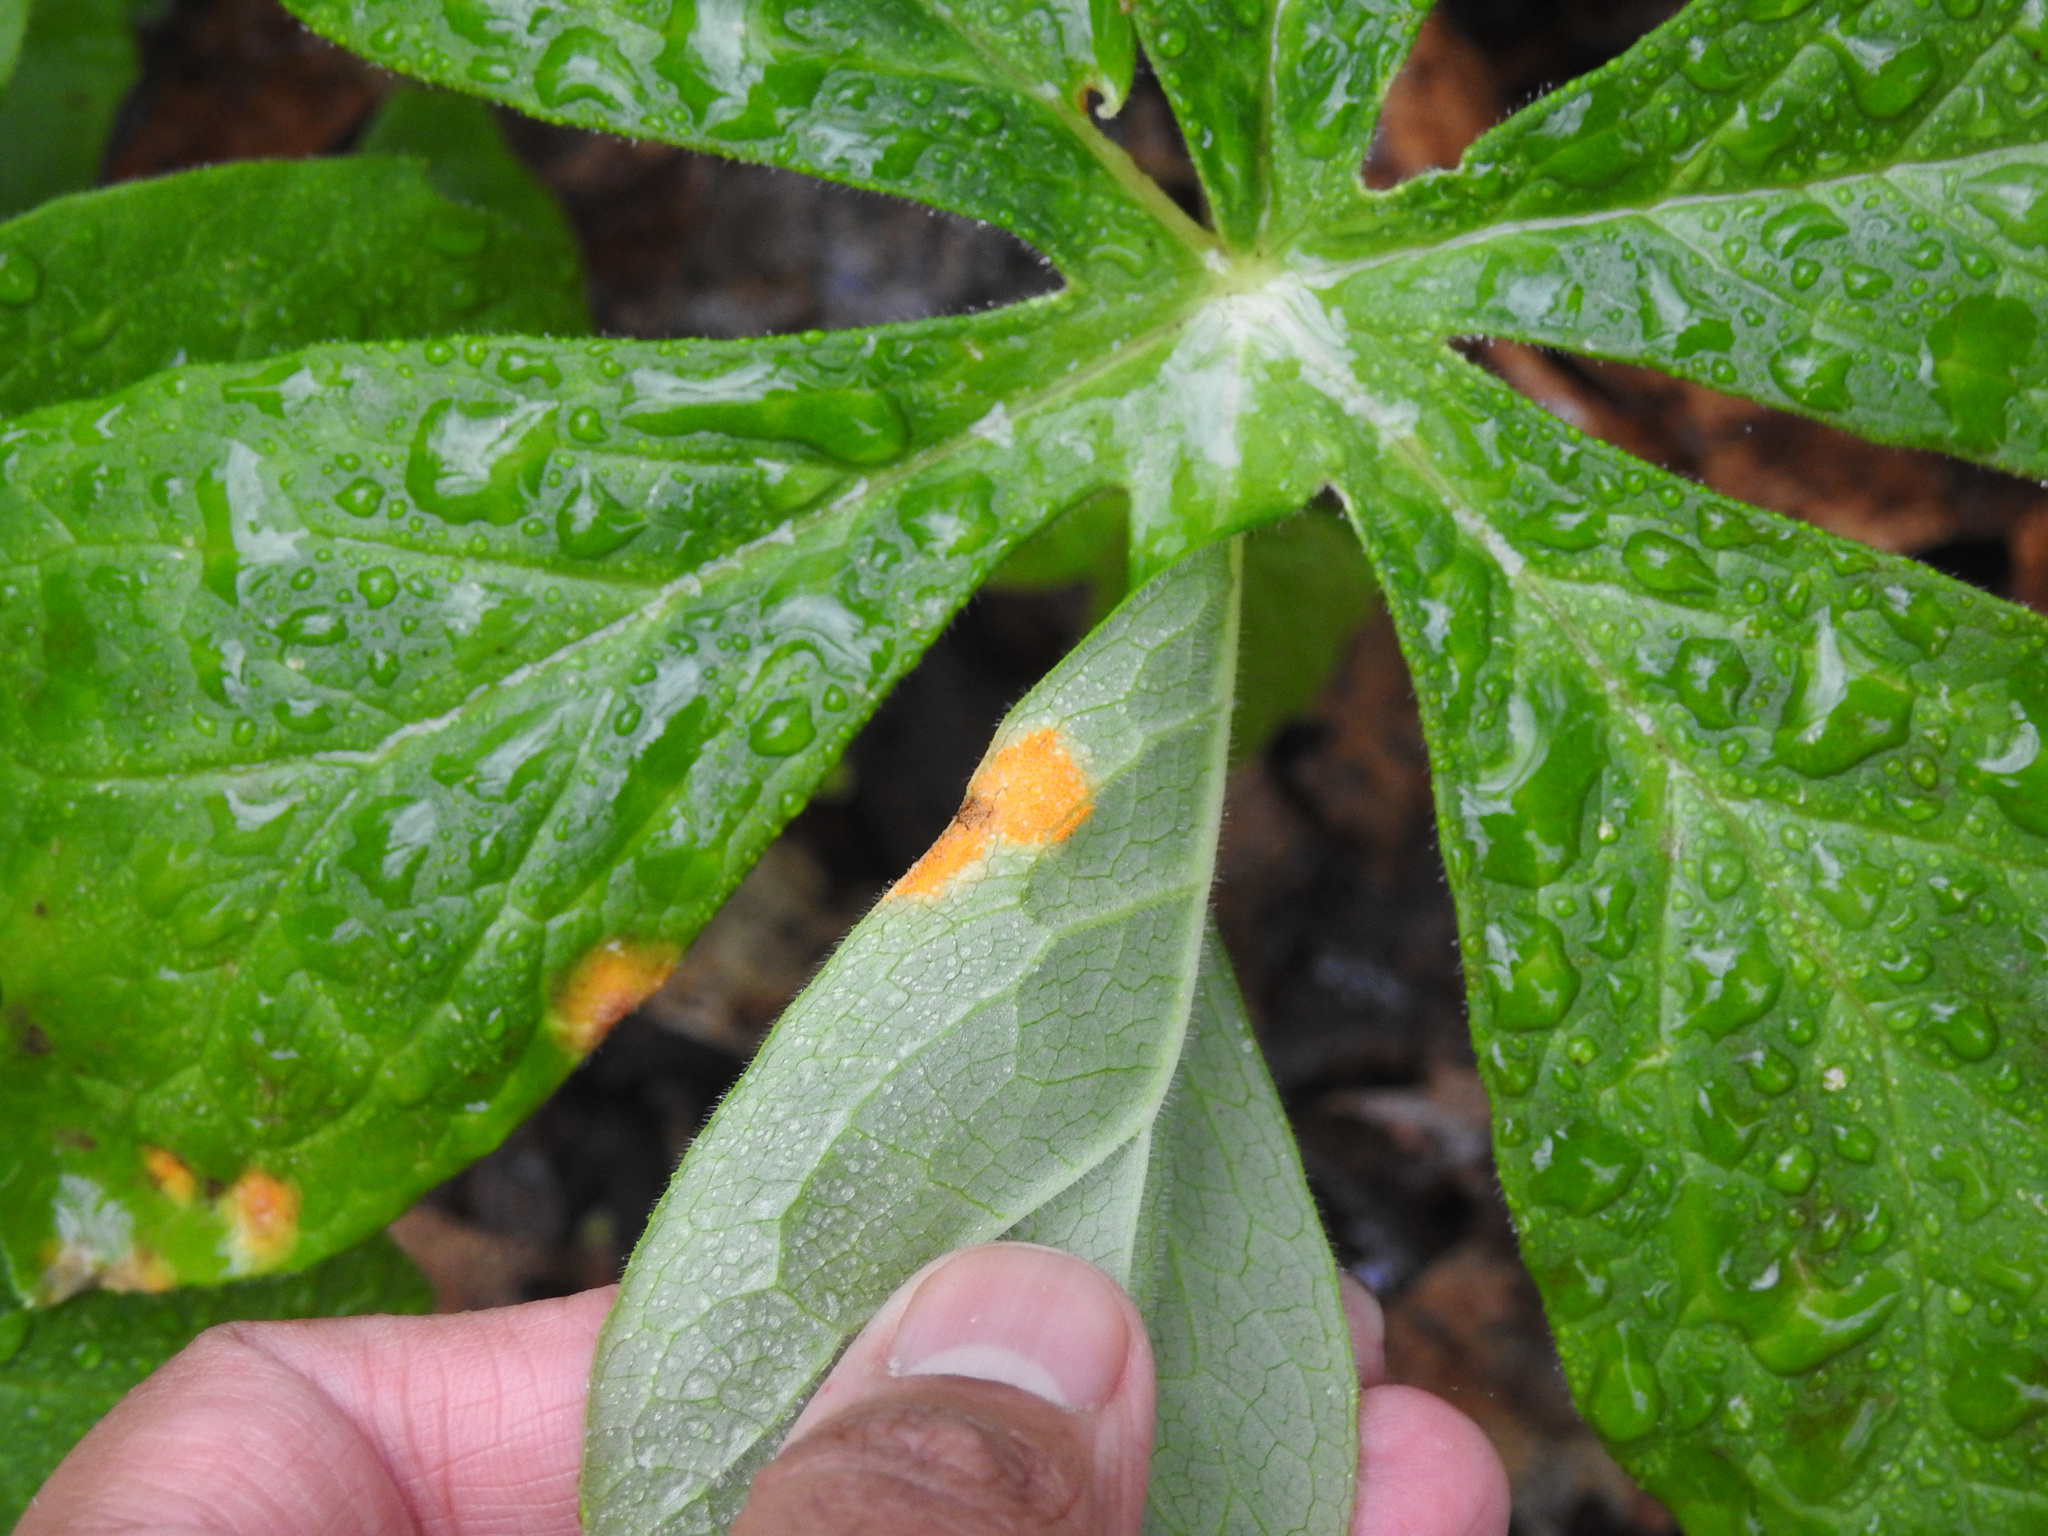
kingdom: Fungi
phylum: Basidiomycota
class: Pucciniomycetes
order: Pucciniales
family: Pucciniaceae
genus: Puccinia
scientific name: Puccinia podophylli
